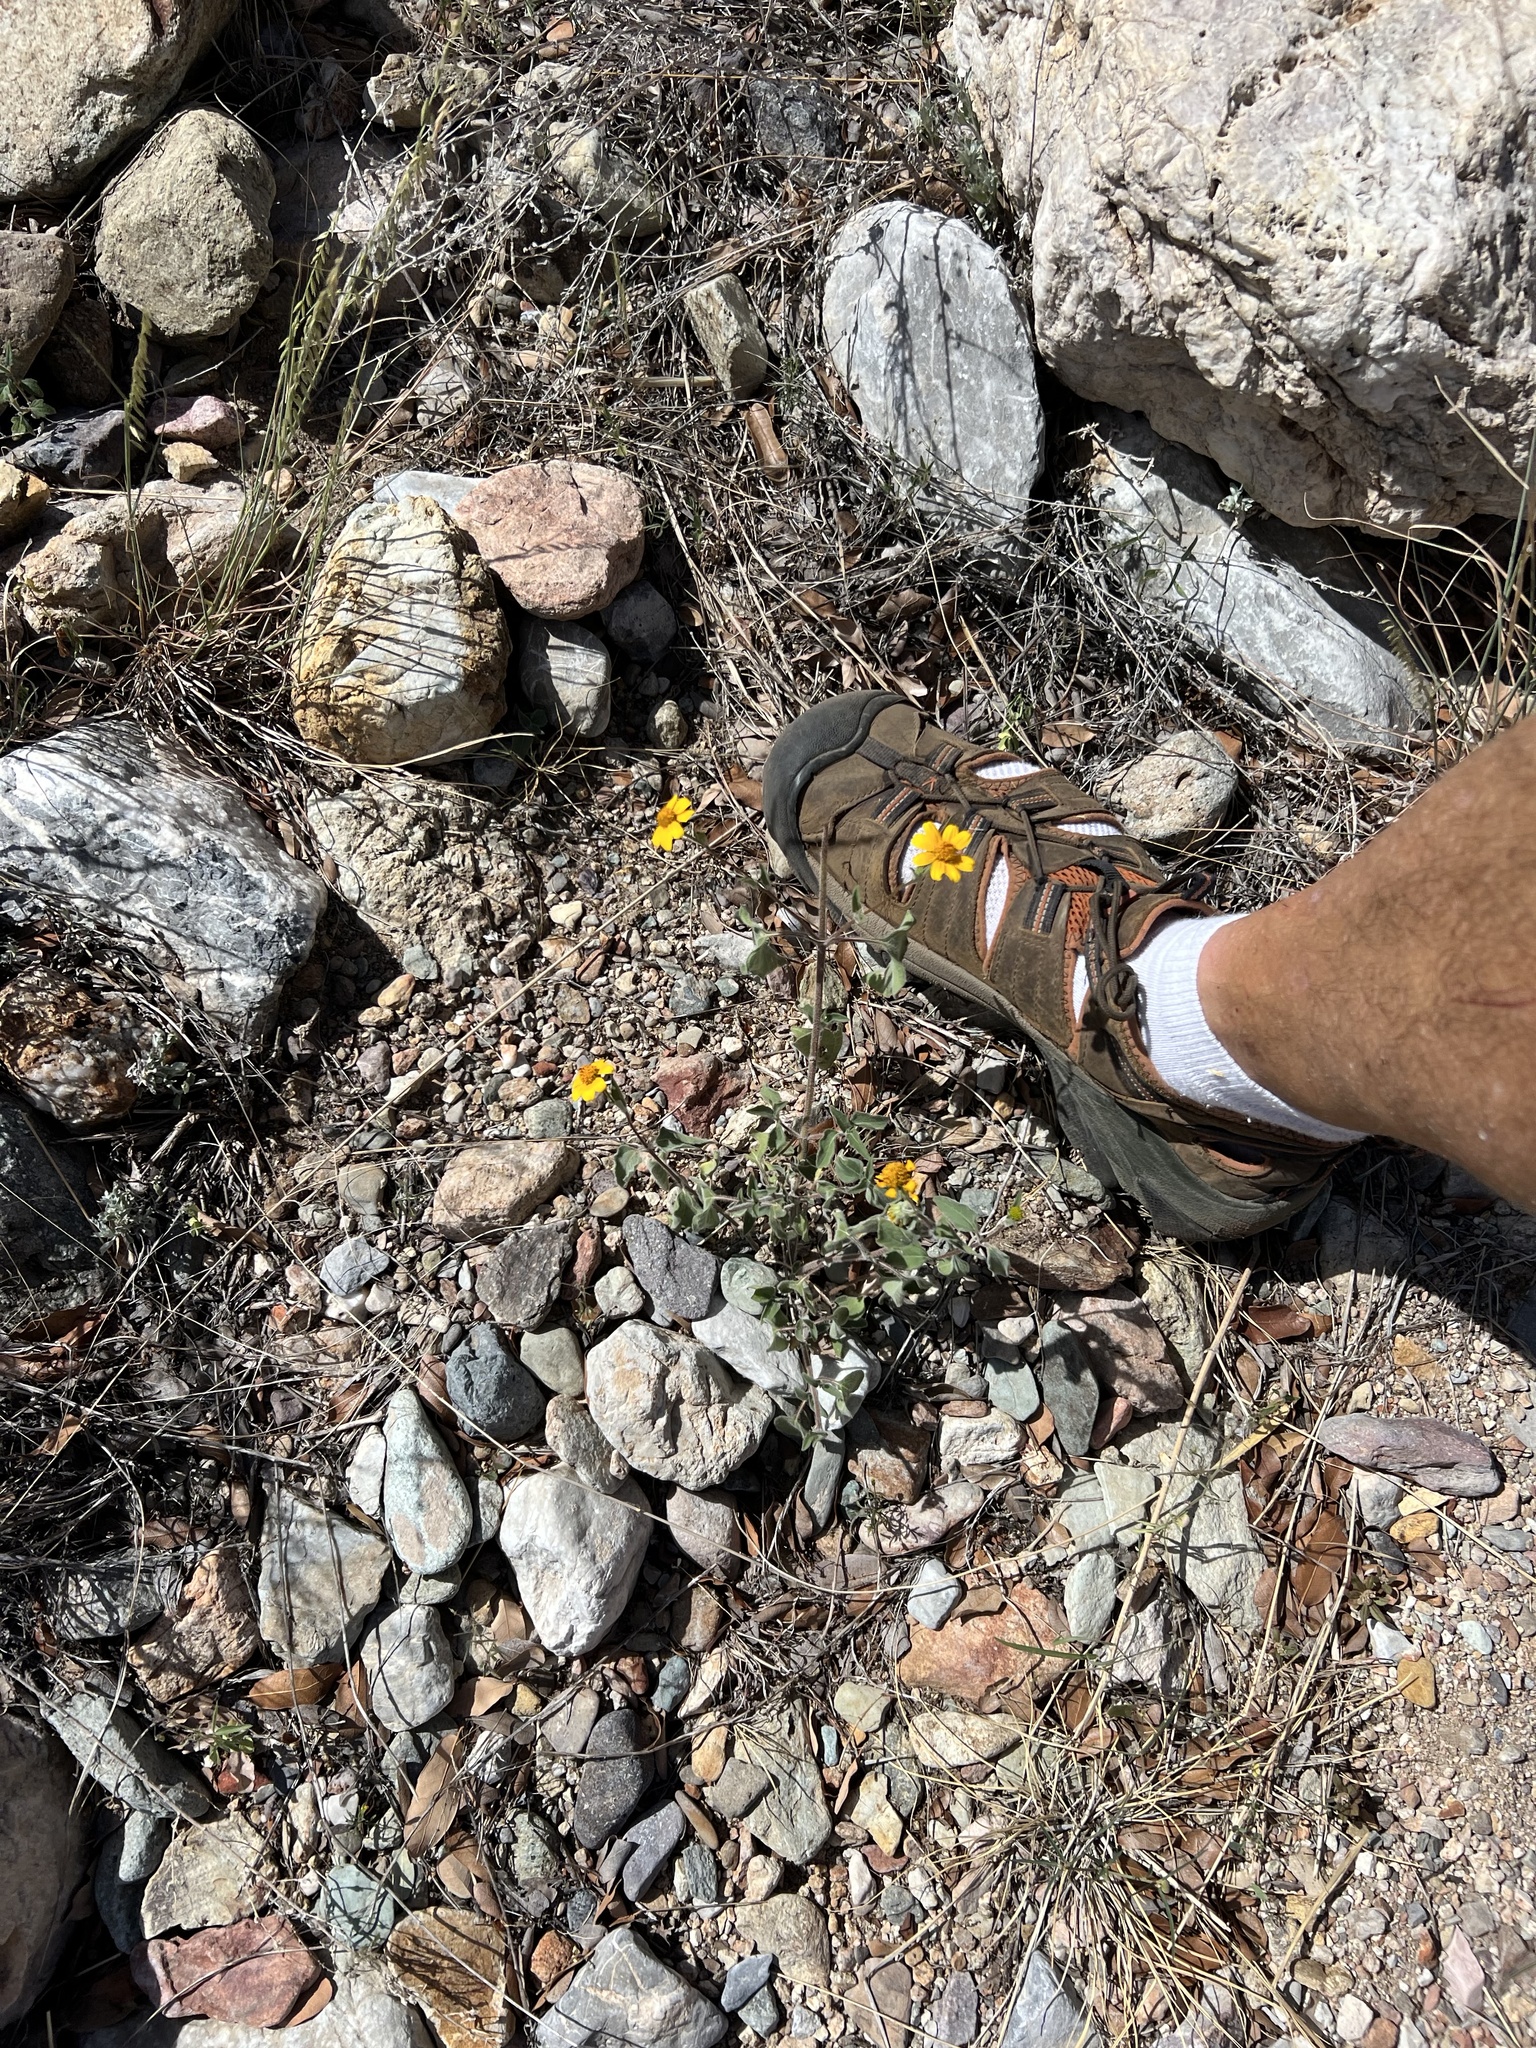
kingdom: Plantae
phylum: Tracheophyta
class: Magnoliopsida
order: Asterales
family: Asteraceae
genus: Viguiera
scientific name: Viguiera dentata
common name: Toothleaf
